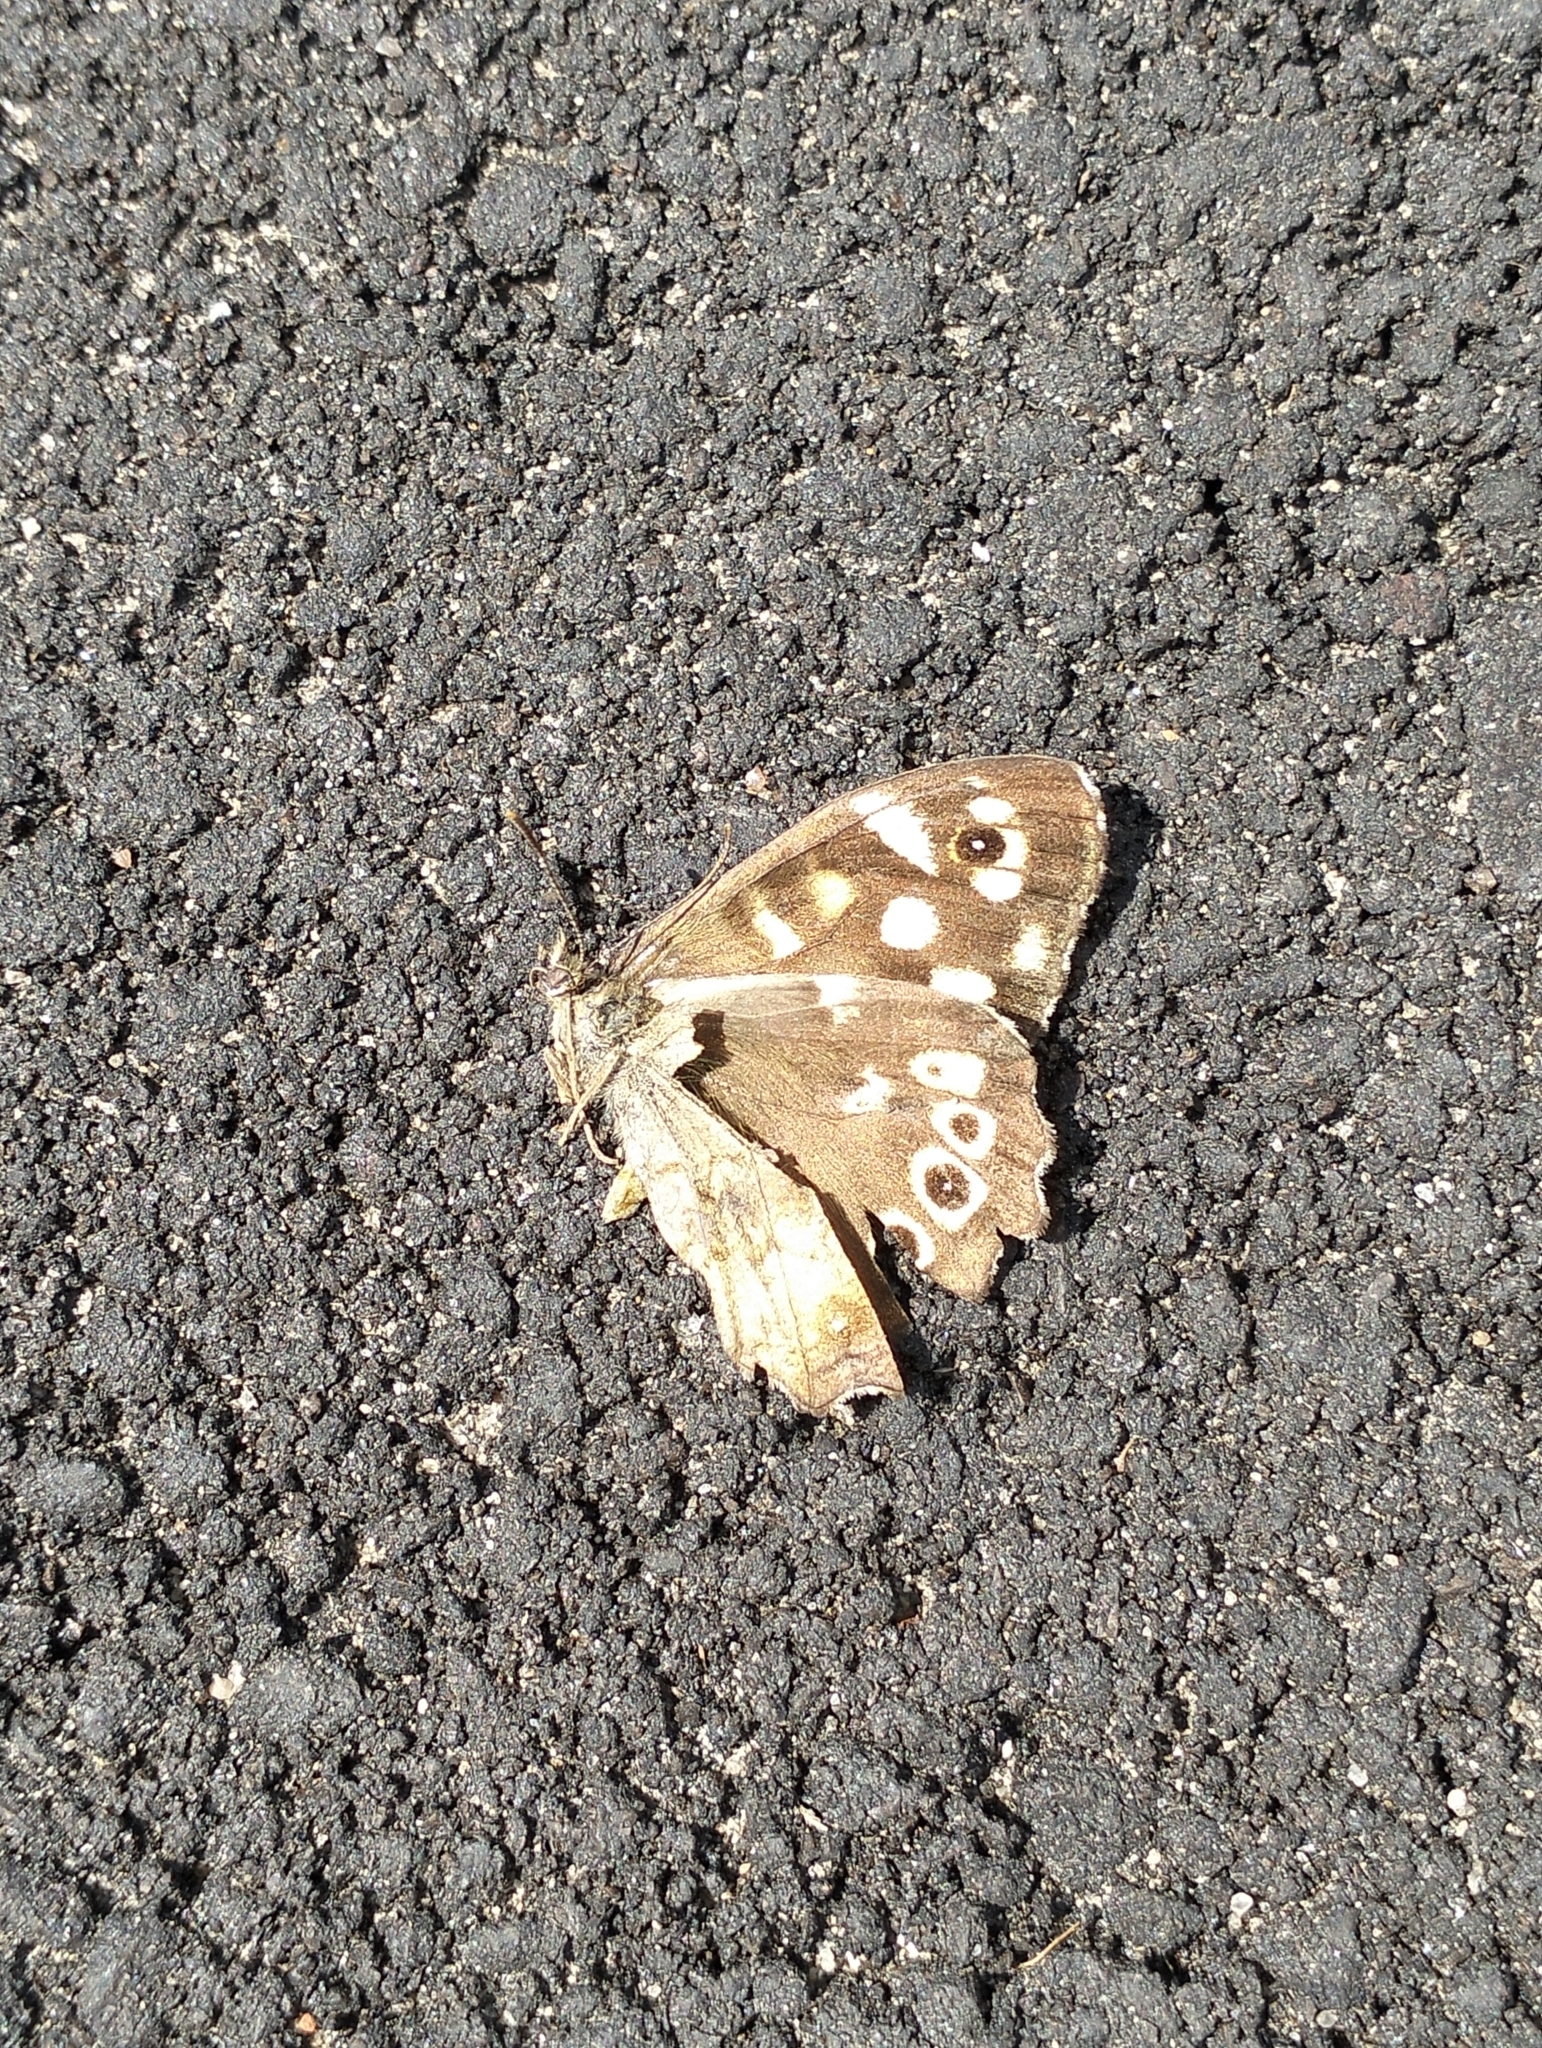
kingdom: Animalia
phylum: Arthropoda
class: Insecta
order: Lepidoptera
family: Nymphalidae
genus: Pararge
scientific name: Pararge aegeria
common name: Speckled wood
